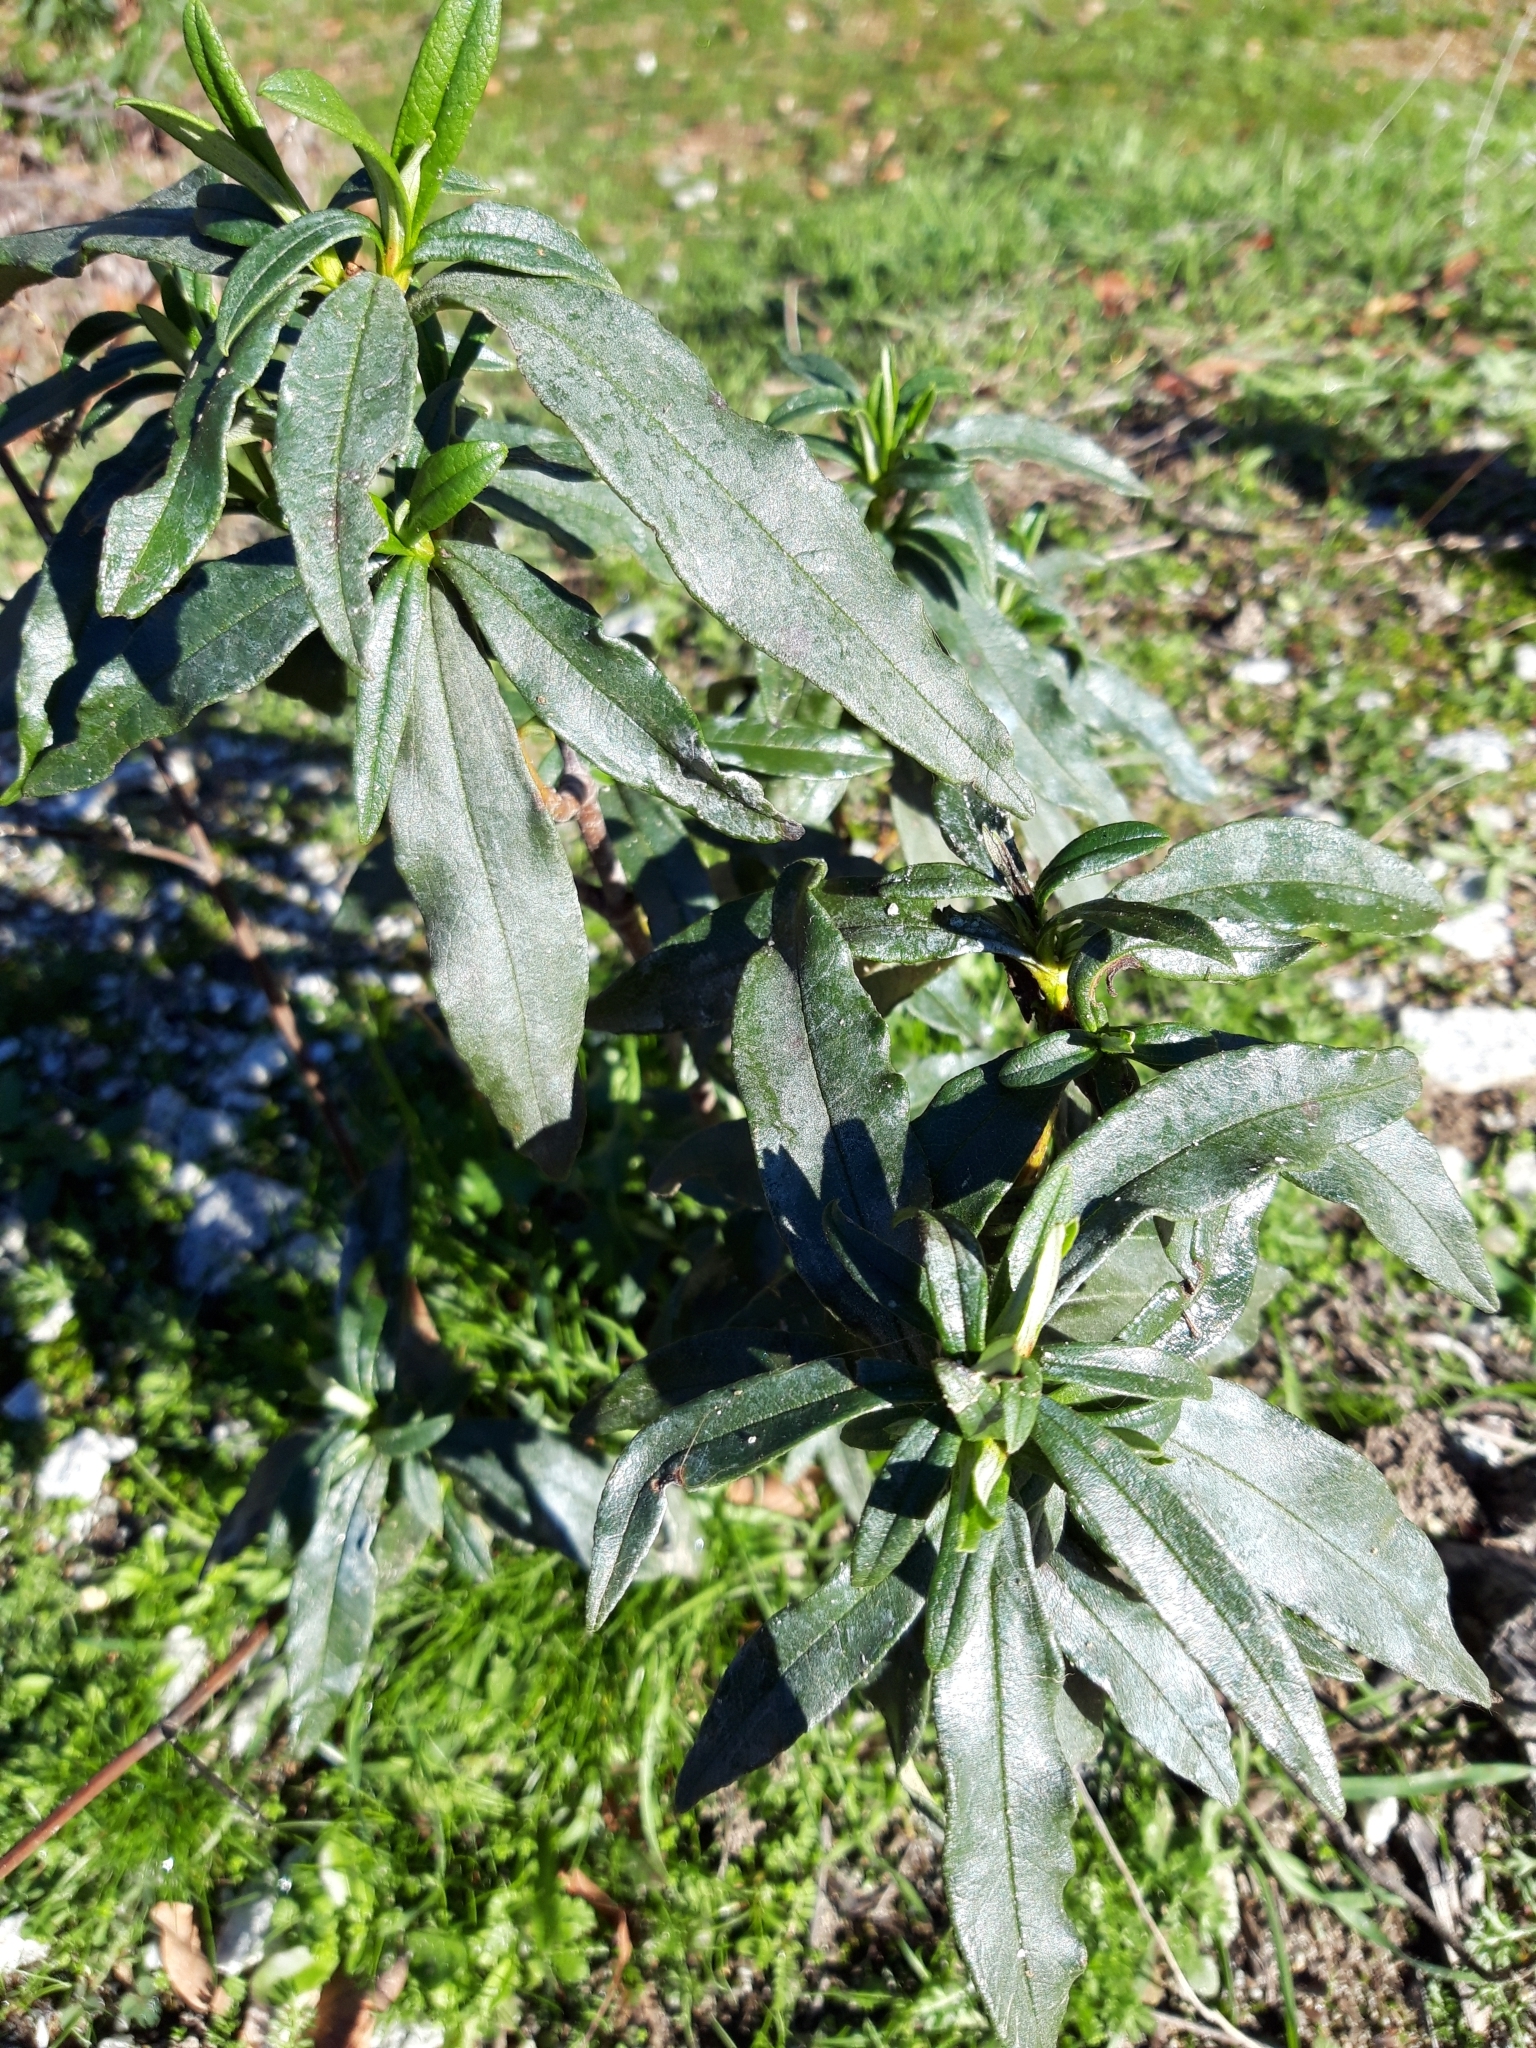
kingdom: Plantae
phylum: Tracheophyta
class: Magnoliopsida
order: Malvales
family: Cistaceae
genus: Cistus
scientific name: Cistus ladanifer
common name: Common gum cistus
